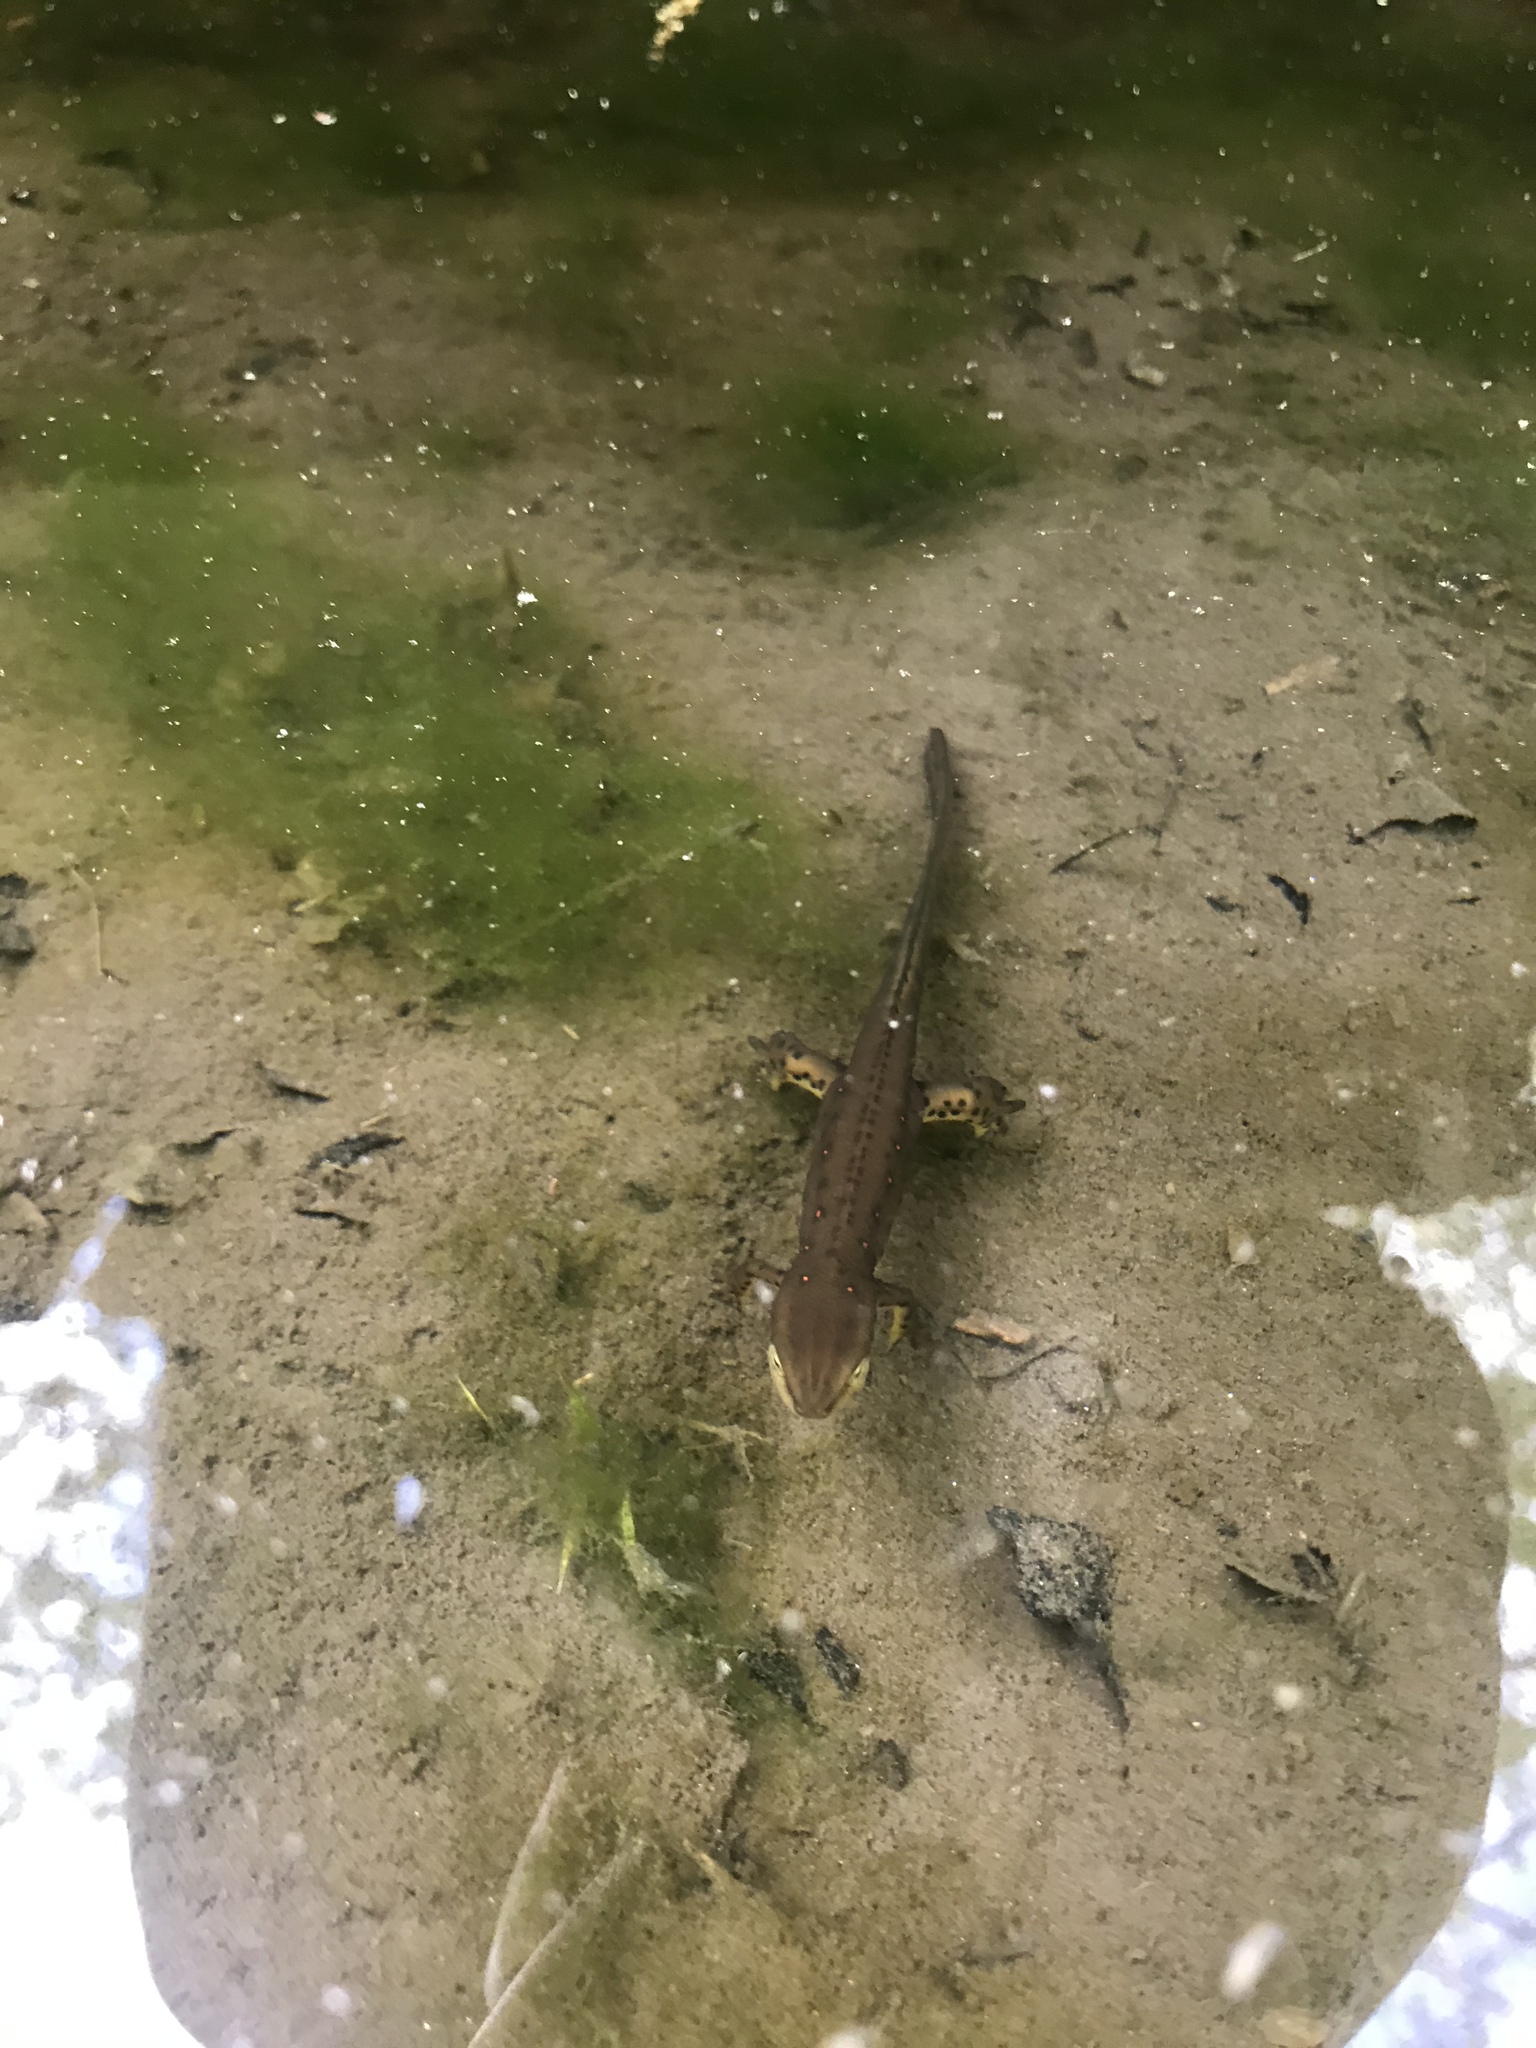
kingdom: Animalia
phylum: Chordata
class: Amphibia
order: Caudata
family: Salamandridae
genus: Notophthalmus
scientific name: Notophthalmus viridescens
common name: Eastern newt
